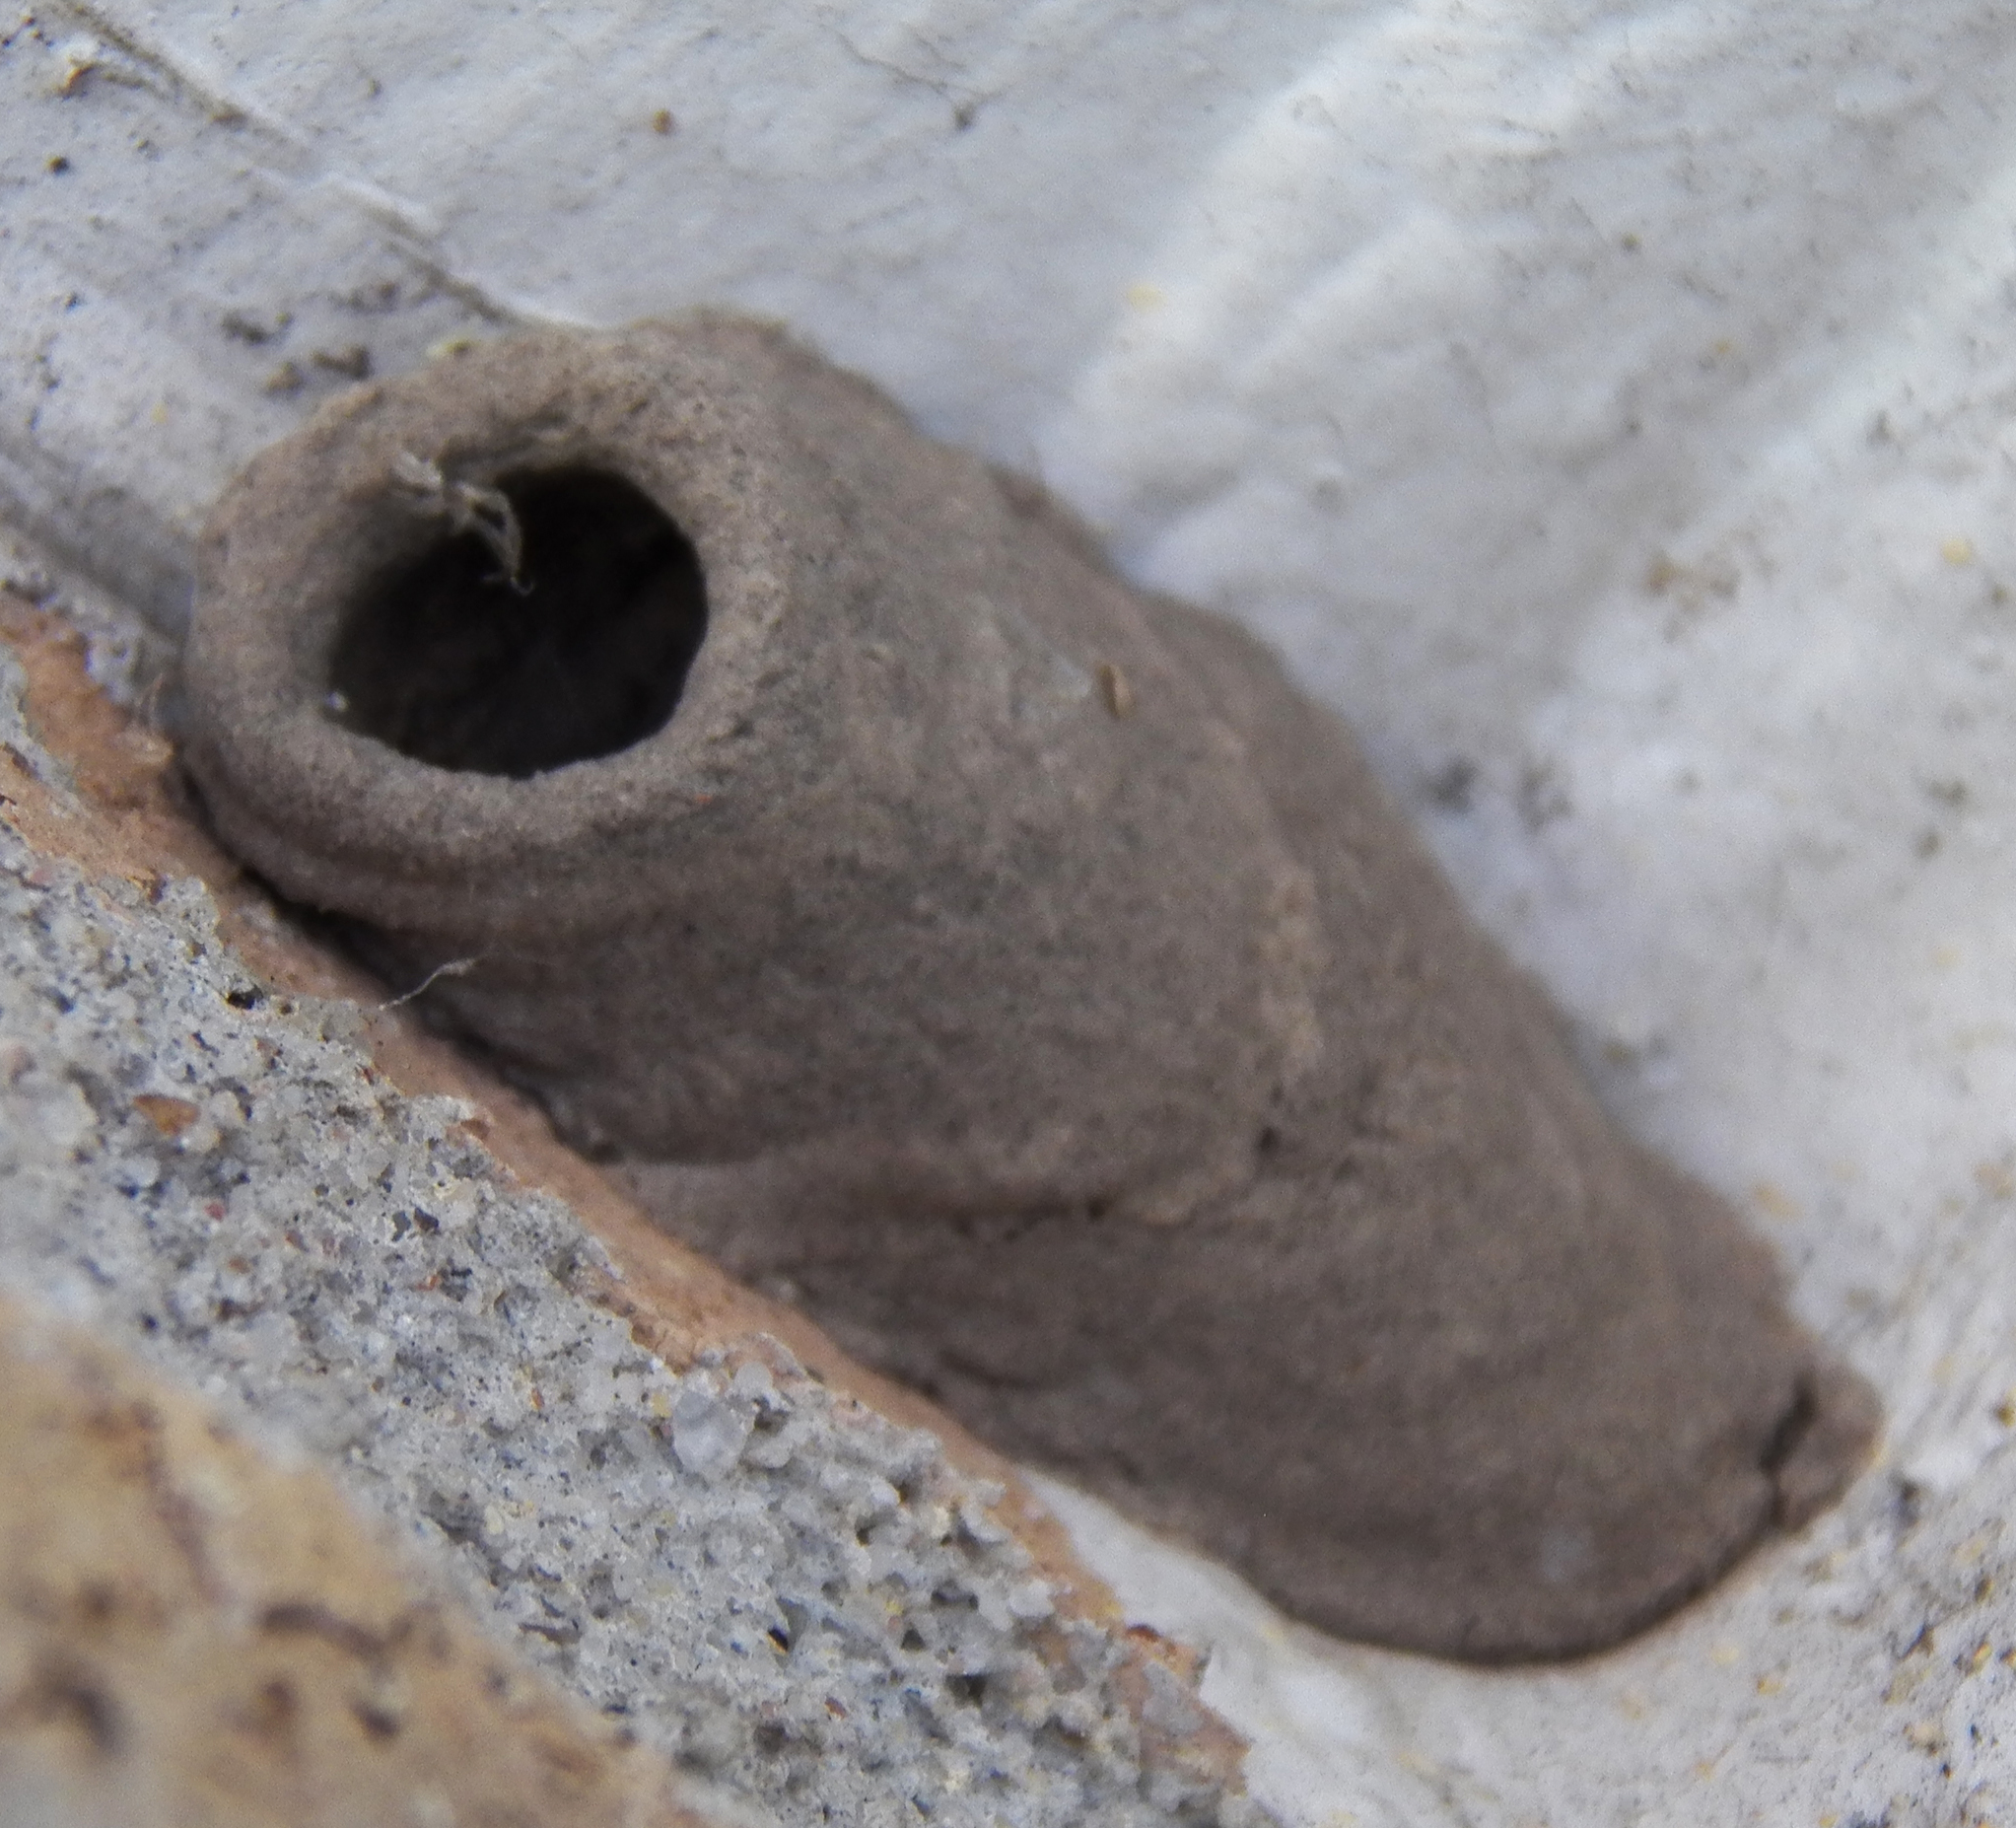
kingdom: Animalia
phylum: Arthropoda
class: Insecta
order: Hymenoptera
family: Sphecidae
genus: Sceliphron
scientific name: Sceliphron caementarium
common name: Mud dauber
